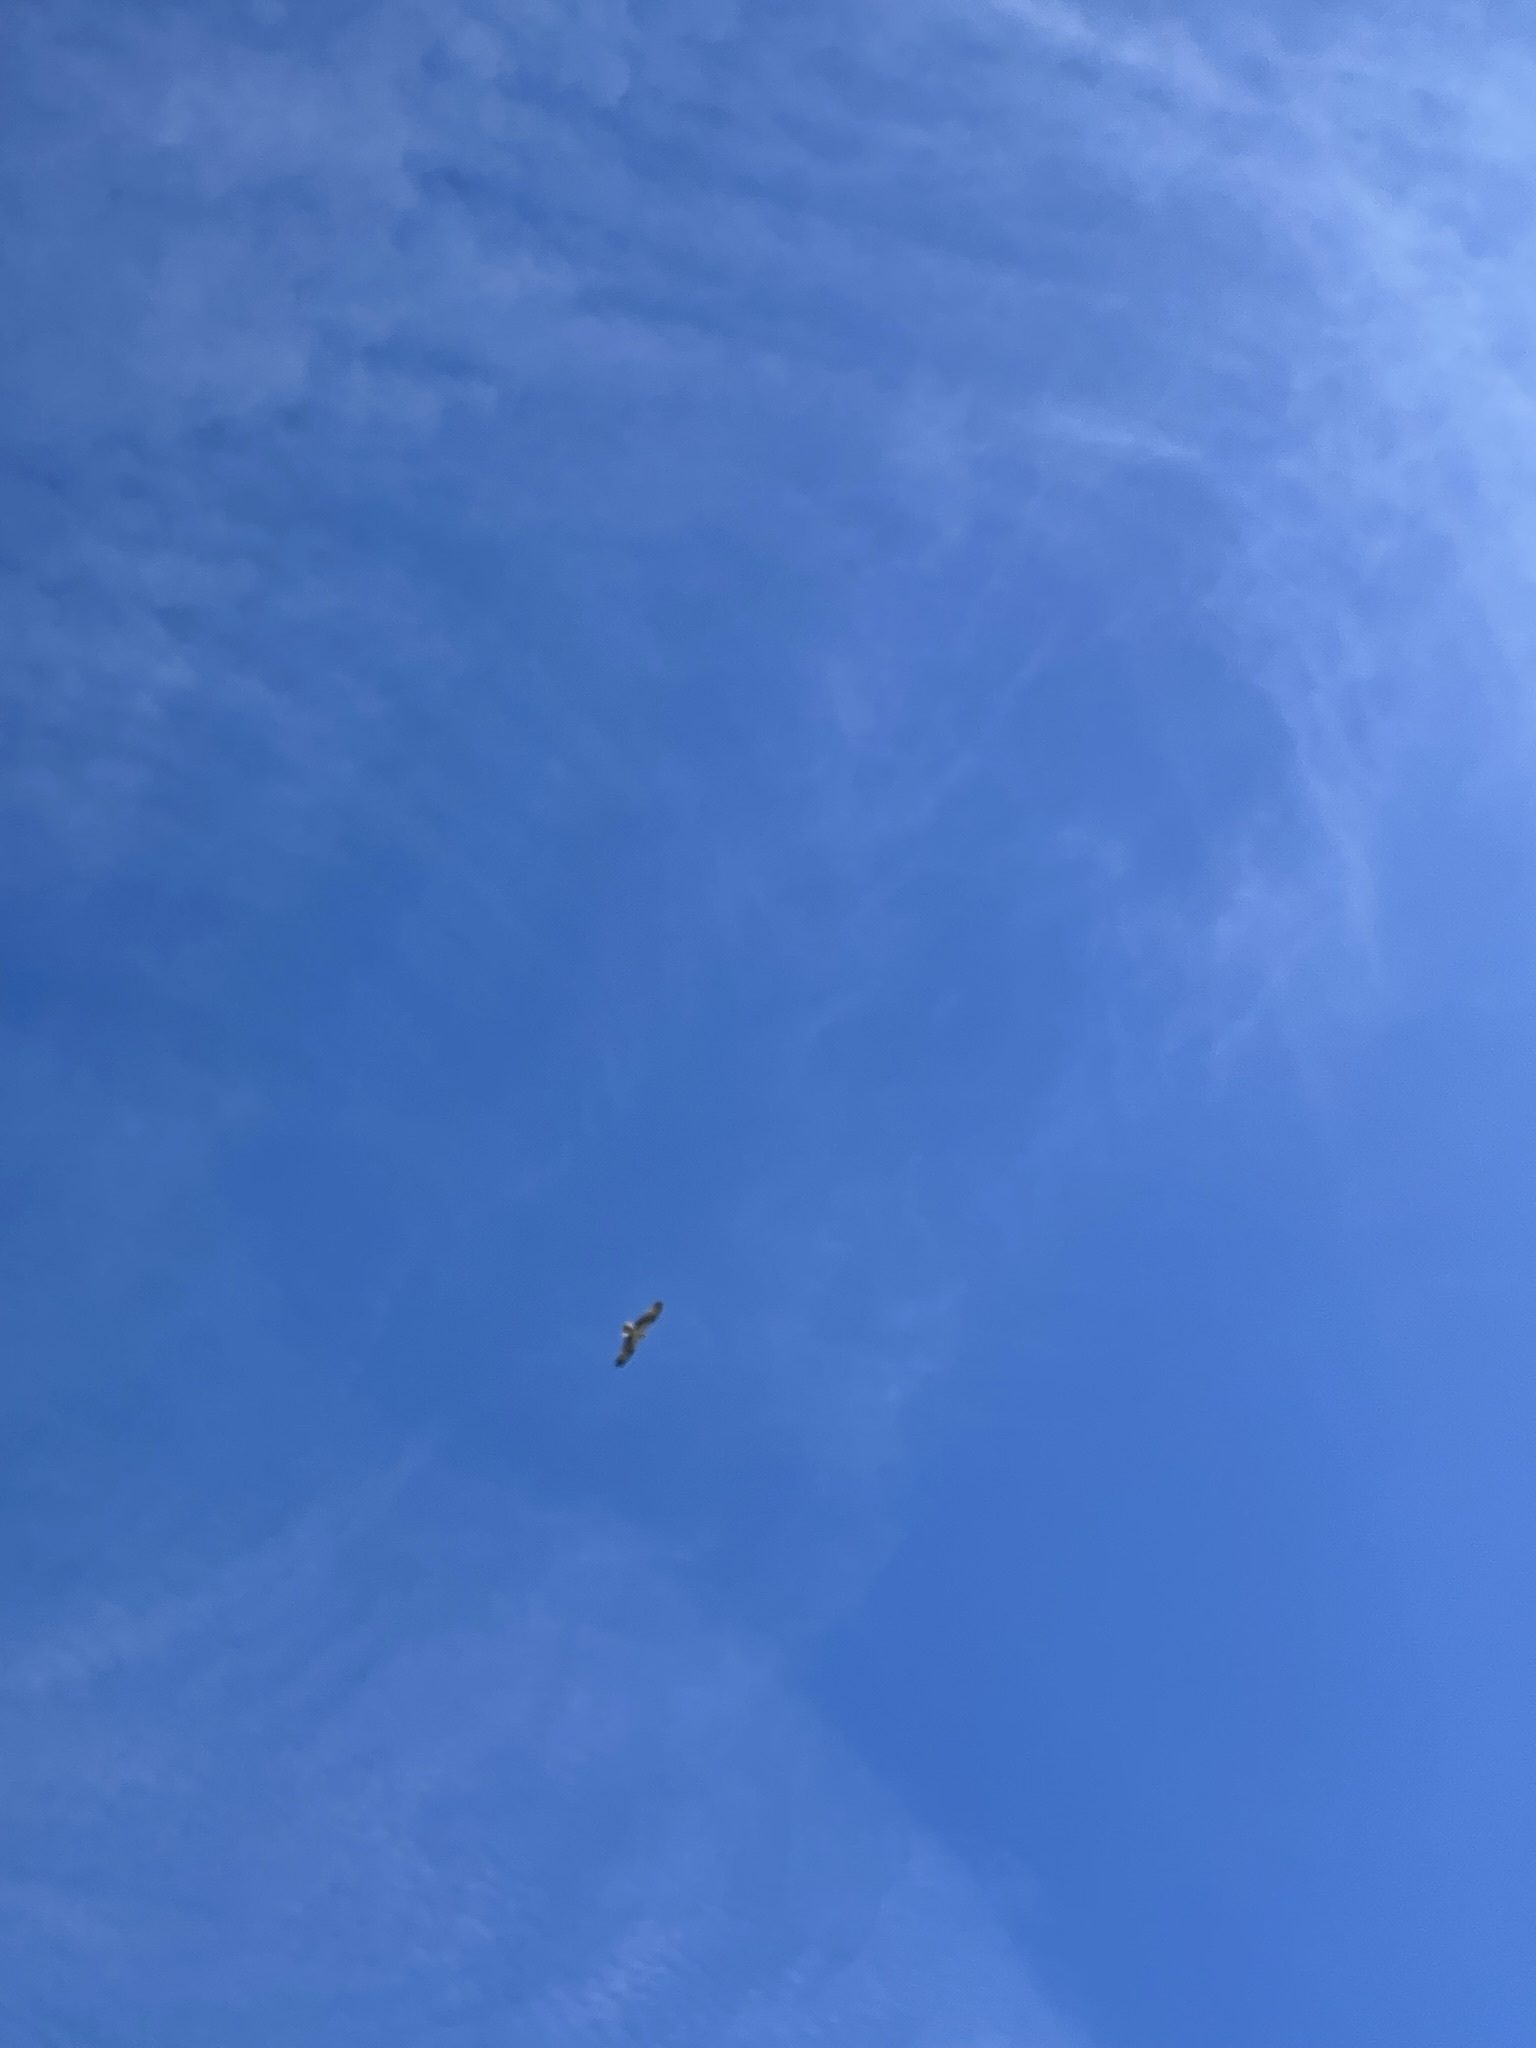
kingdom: Animalia
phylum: Chordata
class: Aves
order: Accipitriformes
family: Pandionidae
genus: Pandion
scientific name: Pandion haliaetus
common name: Osprey
